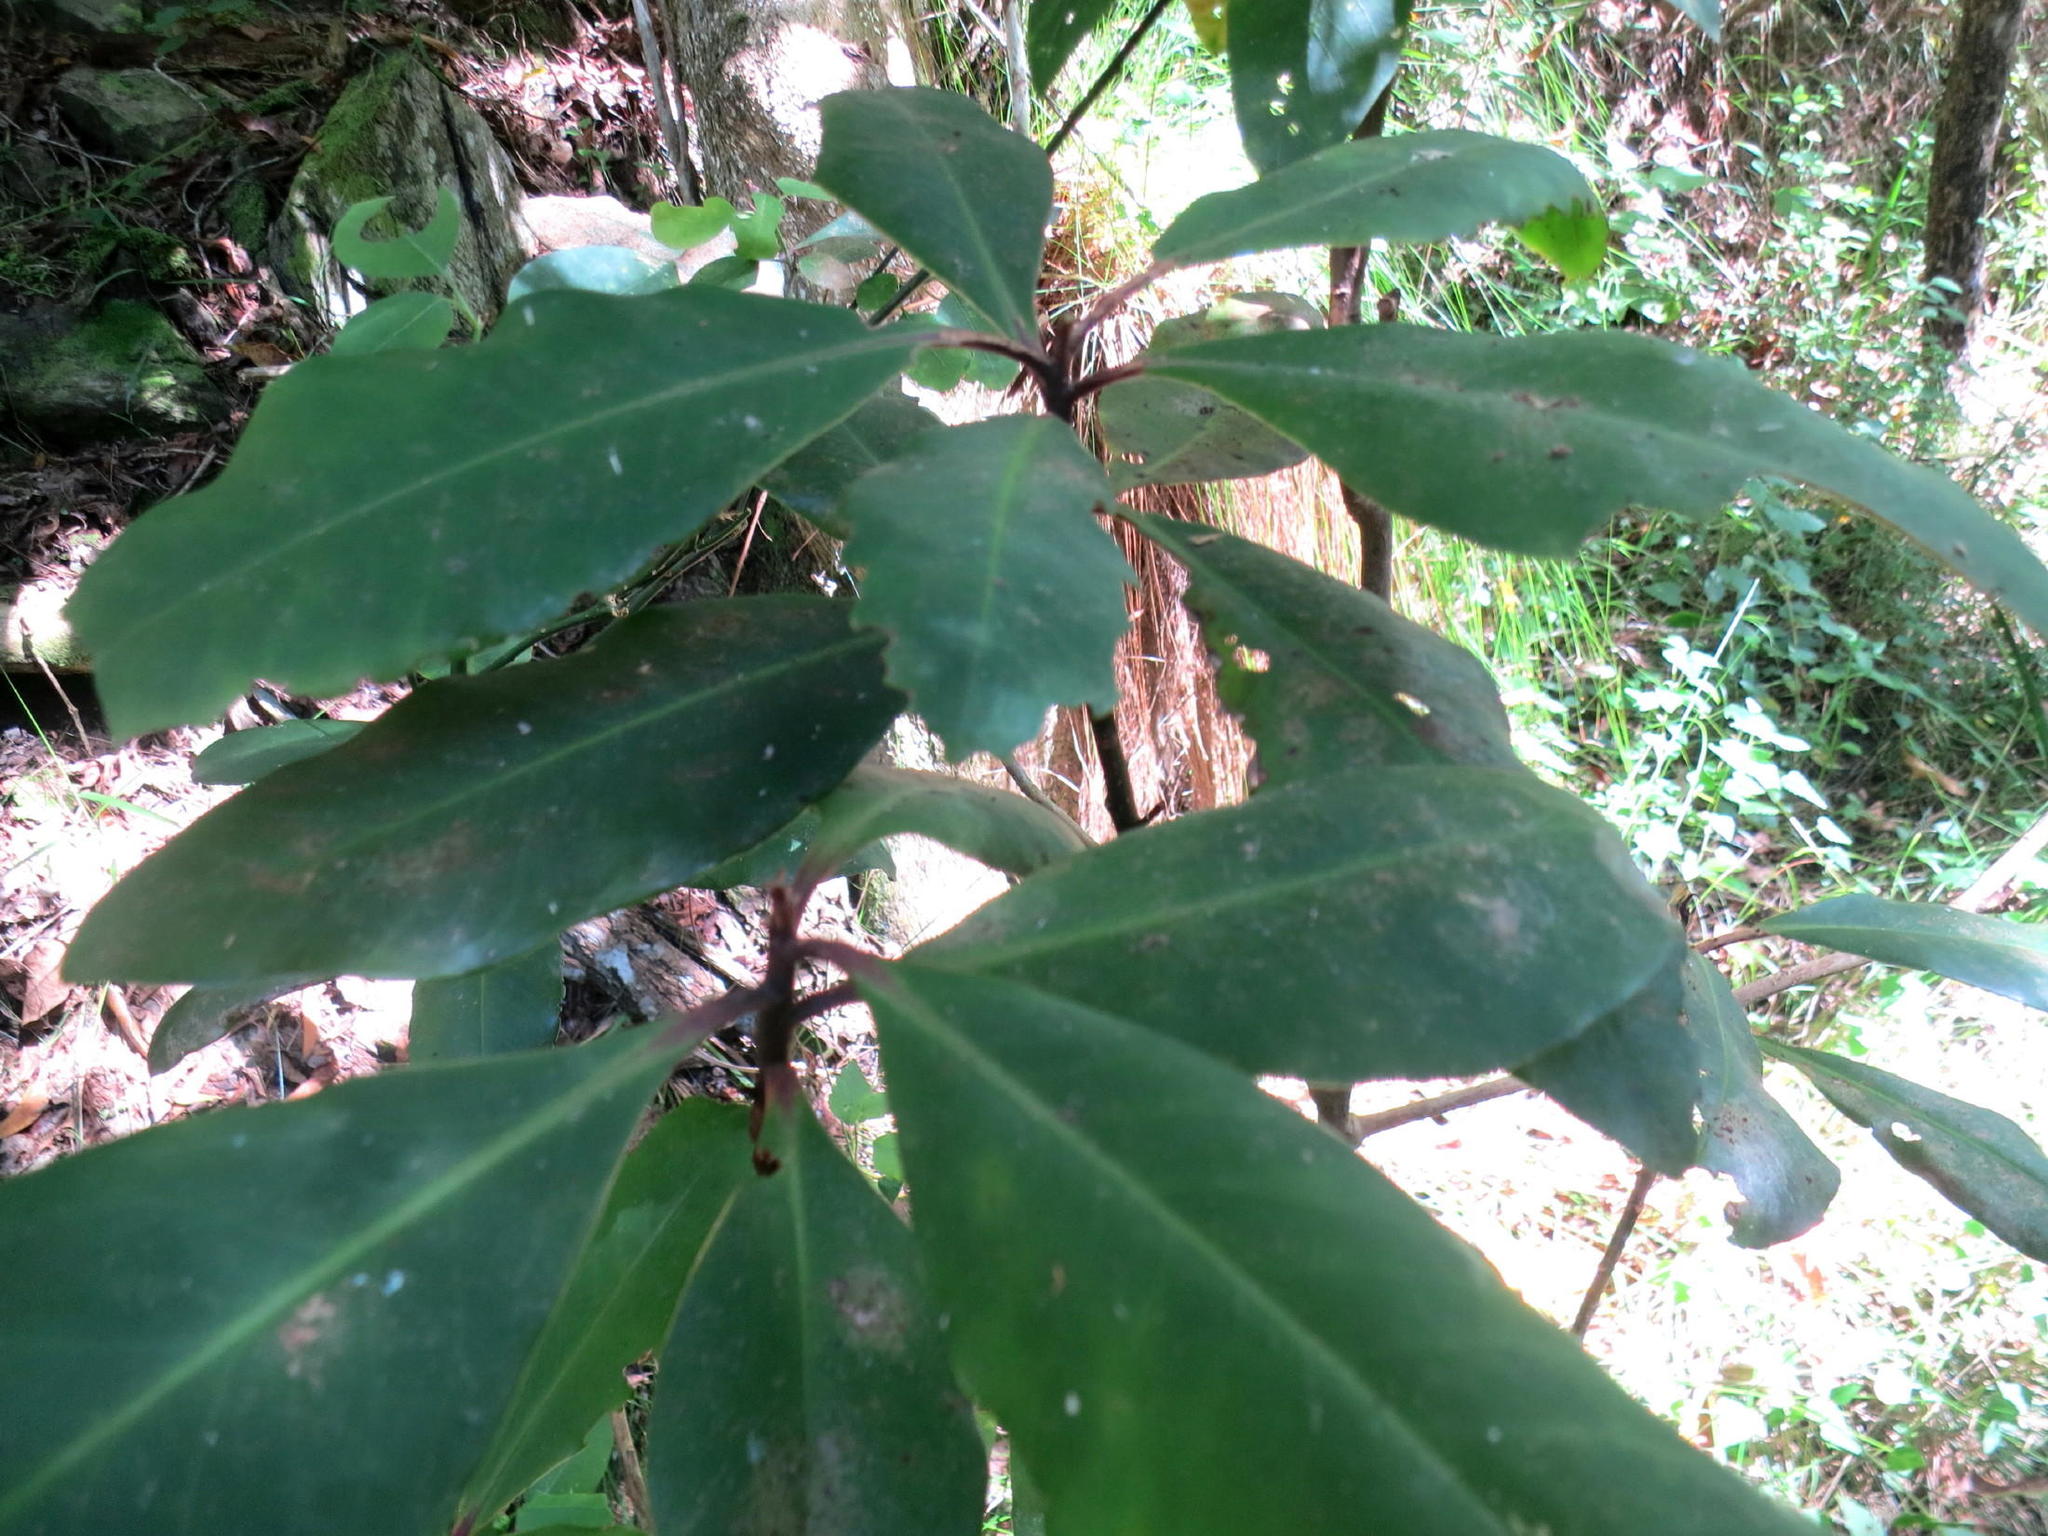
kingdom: Plantae
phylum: Tracheophyta
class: Magnoliopsida
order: Ericales
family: Primulaceae
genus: Myrsine
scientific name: Myrsine melanophloeos
